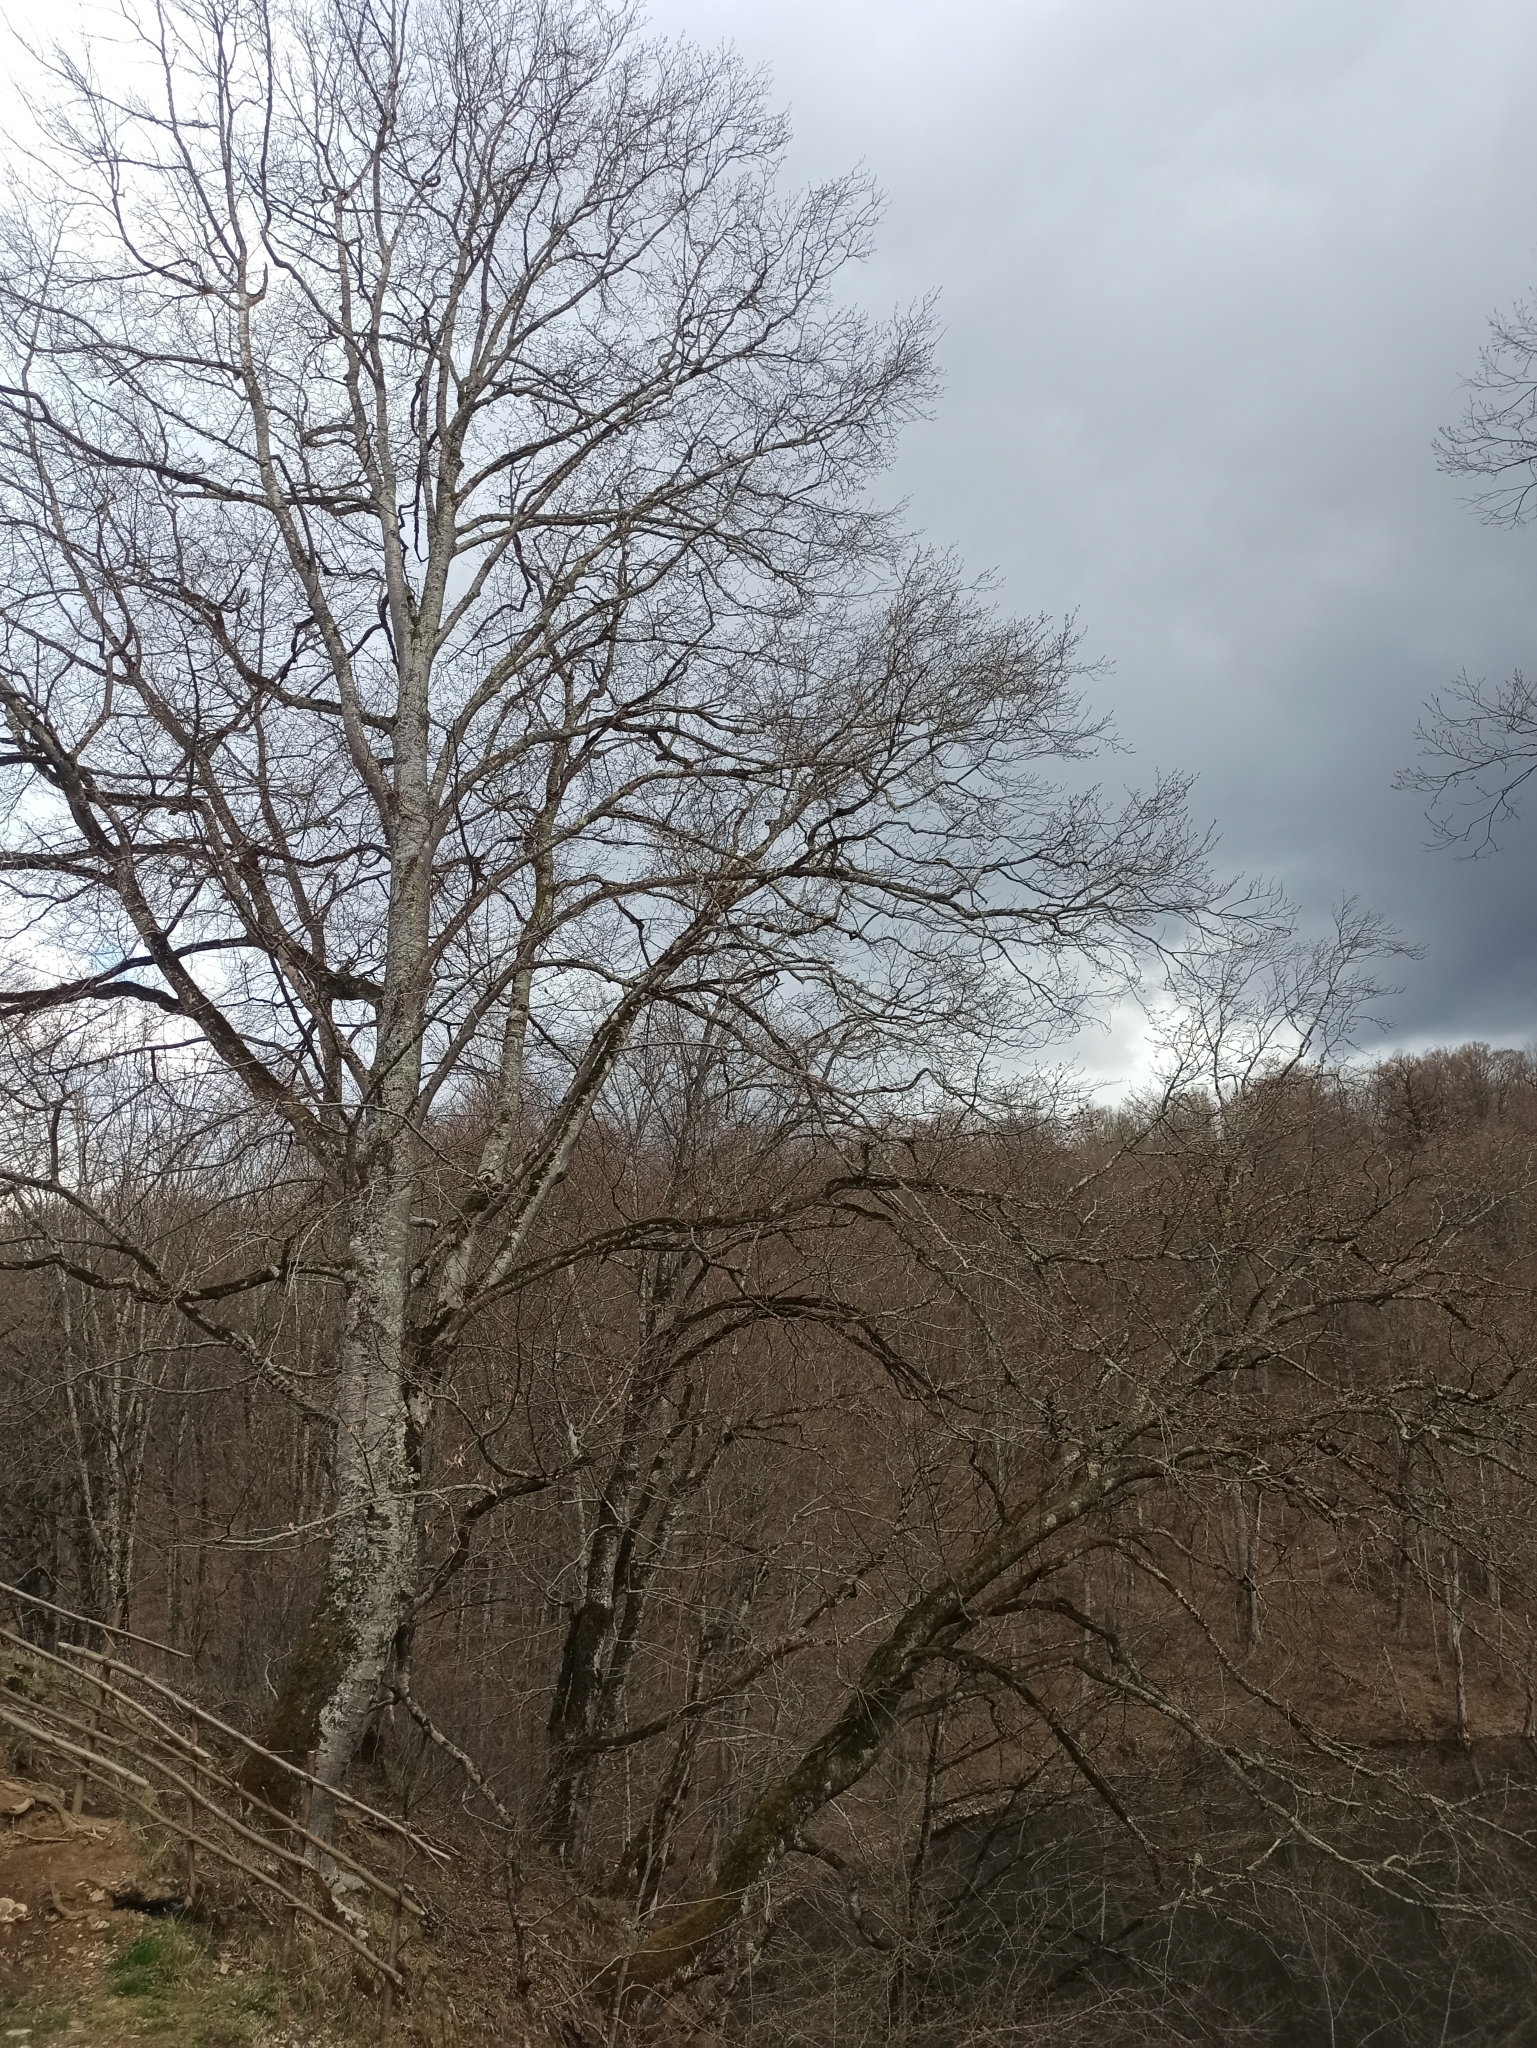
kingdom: Plantae
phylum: Tracheophyta
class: Magnoliopsida
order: Fagales
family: Fagaceae
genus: Fagus
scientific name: Fagus orientalis
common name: Oriental beech
